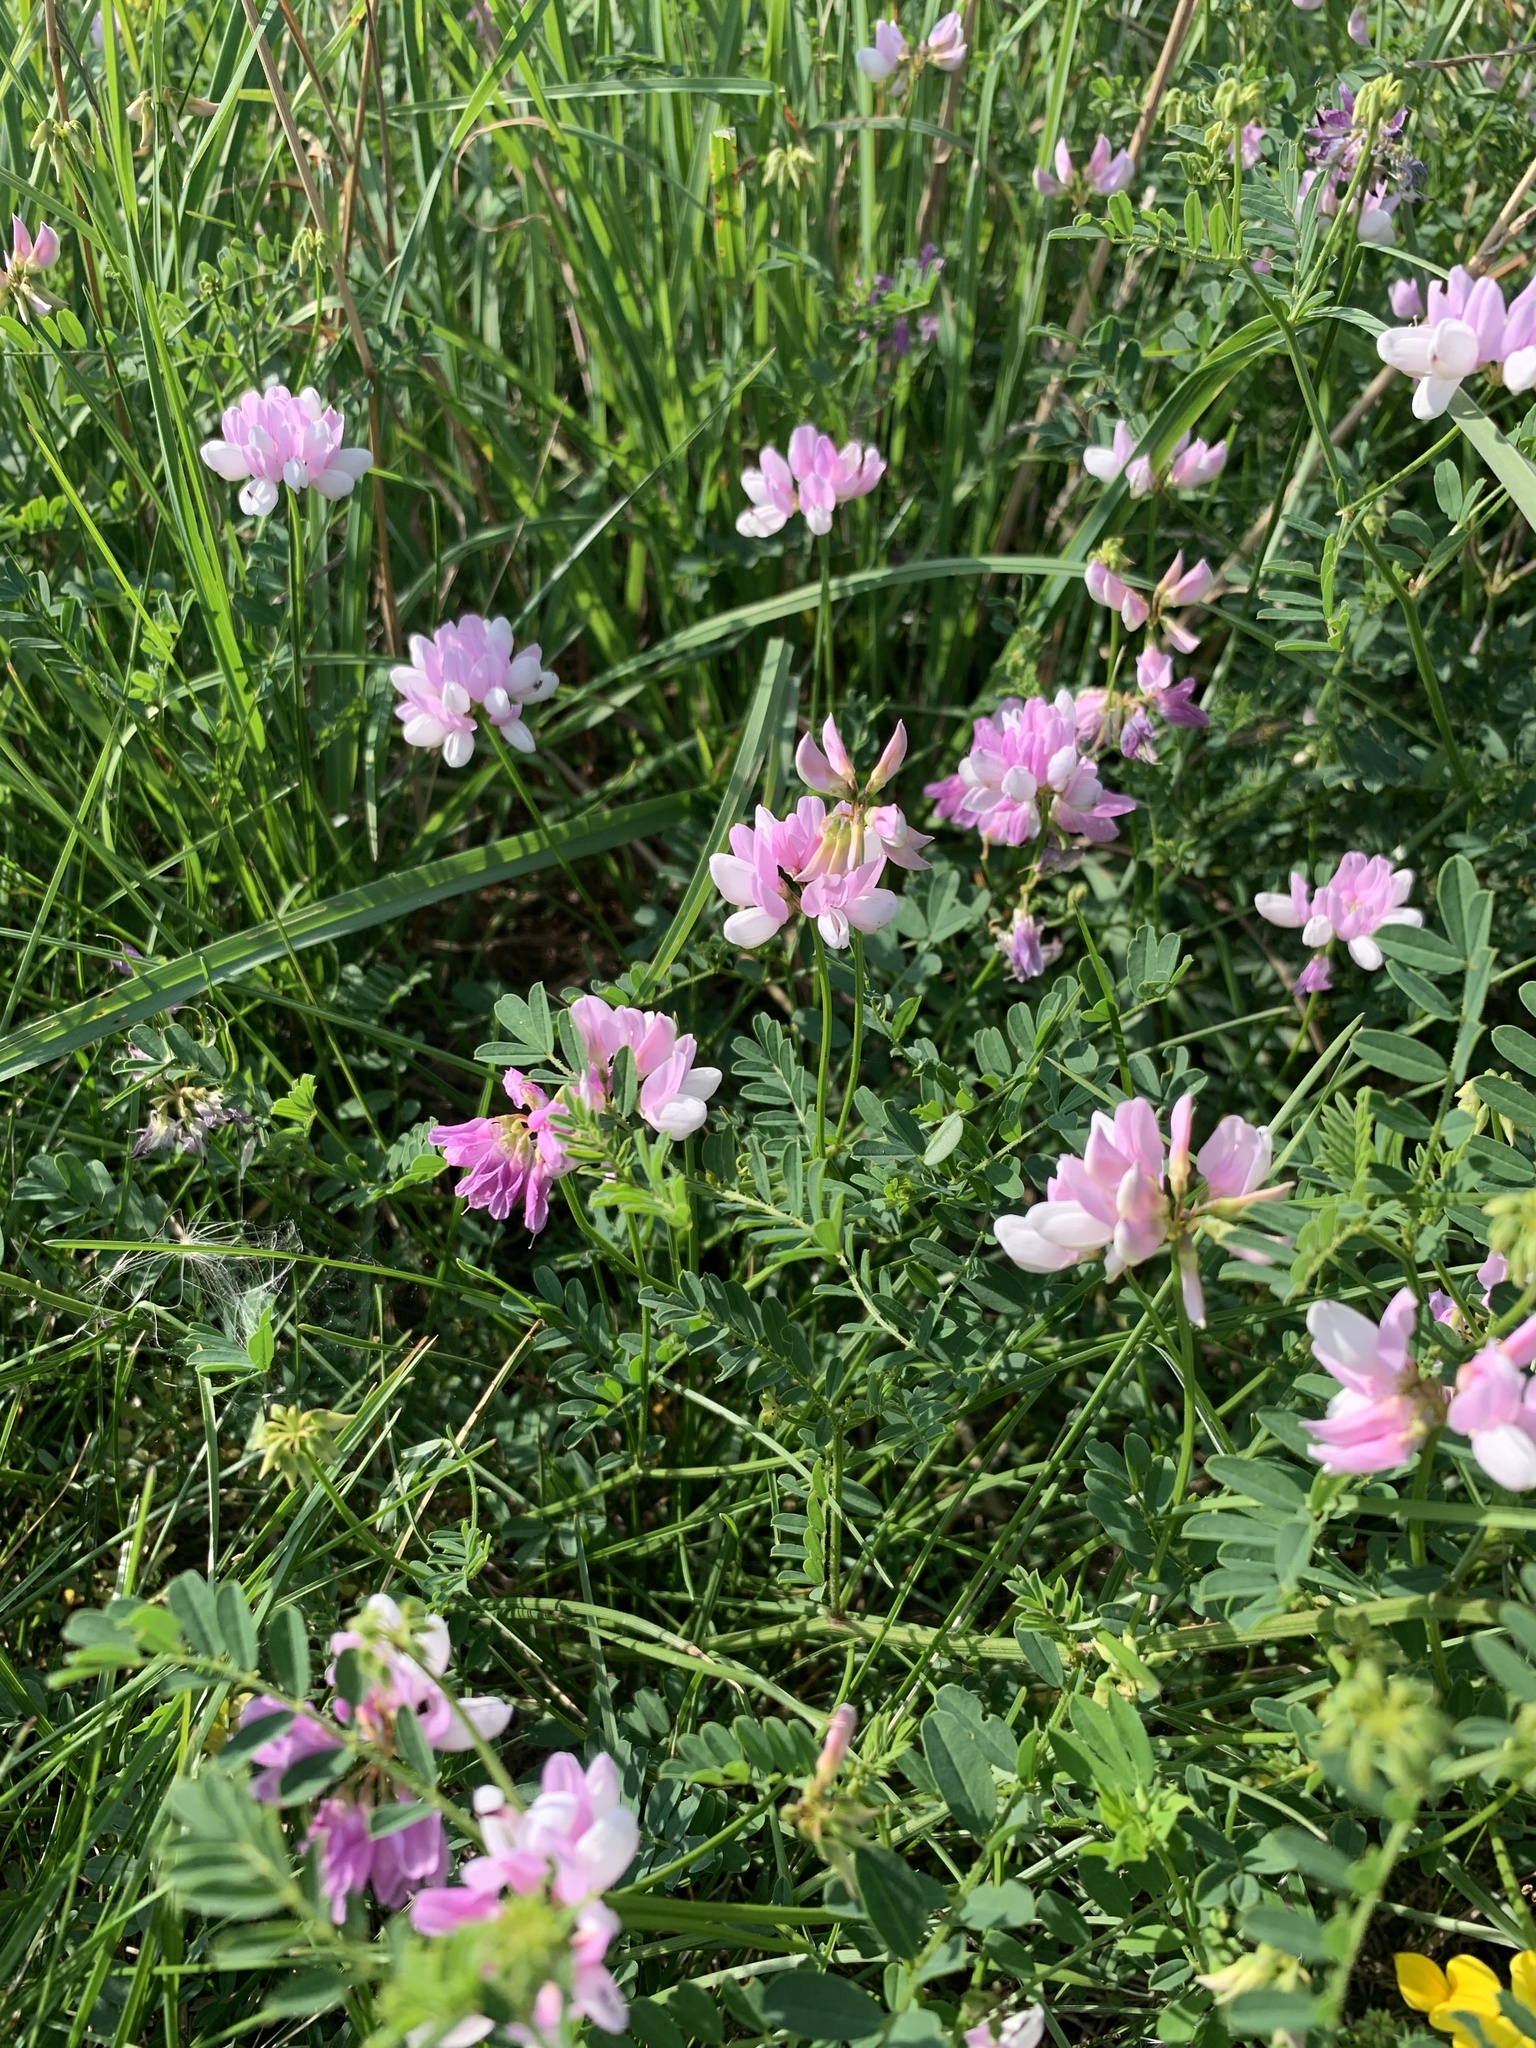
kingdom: Plantae
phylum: Tracheophyta
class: Magnoliopsida
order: Fabales
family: Fabaceae
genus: Coronilla
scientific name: Coronilla varia
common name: Crownvetch
